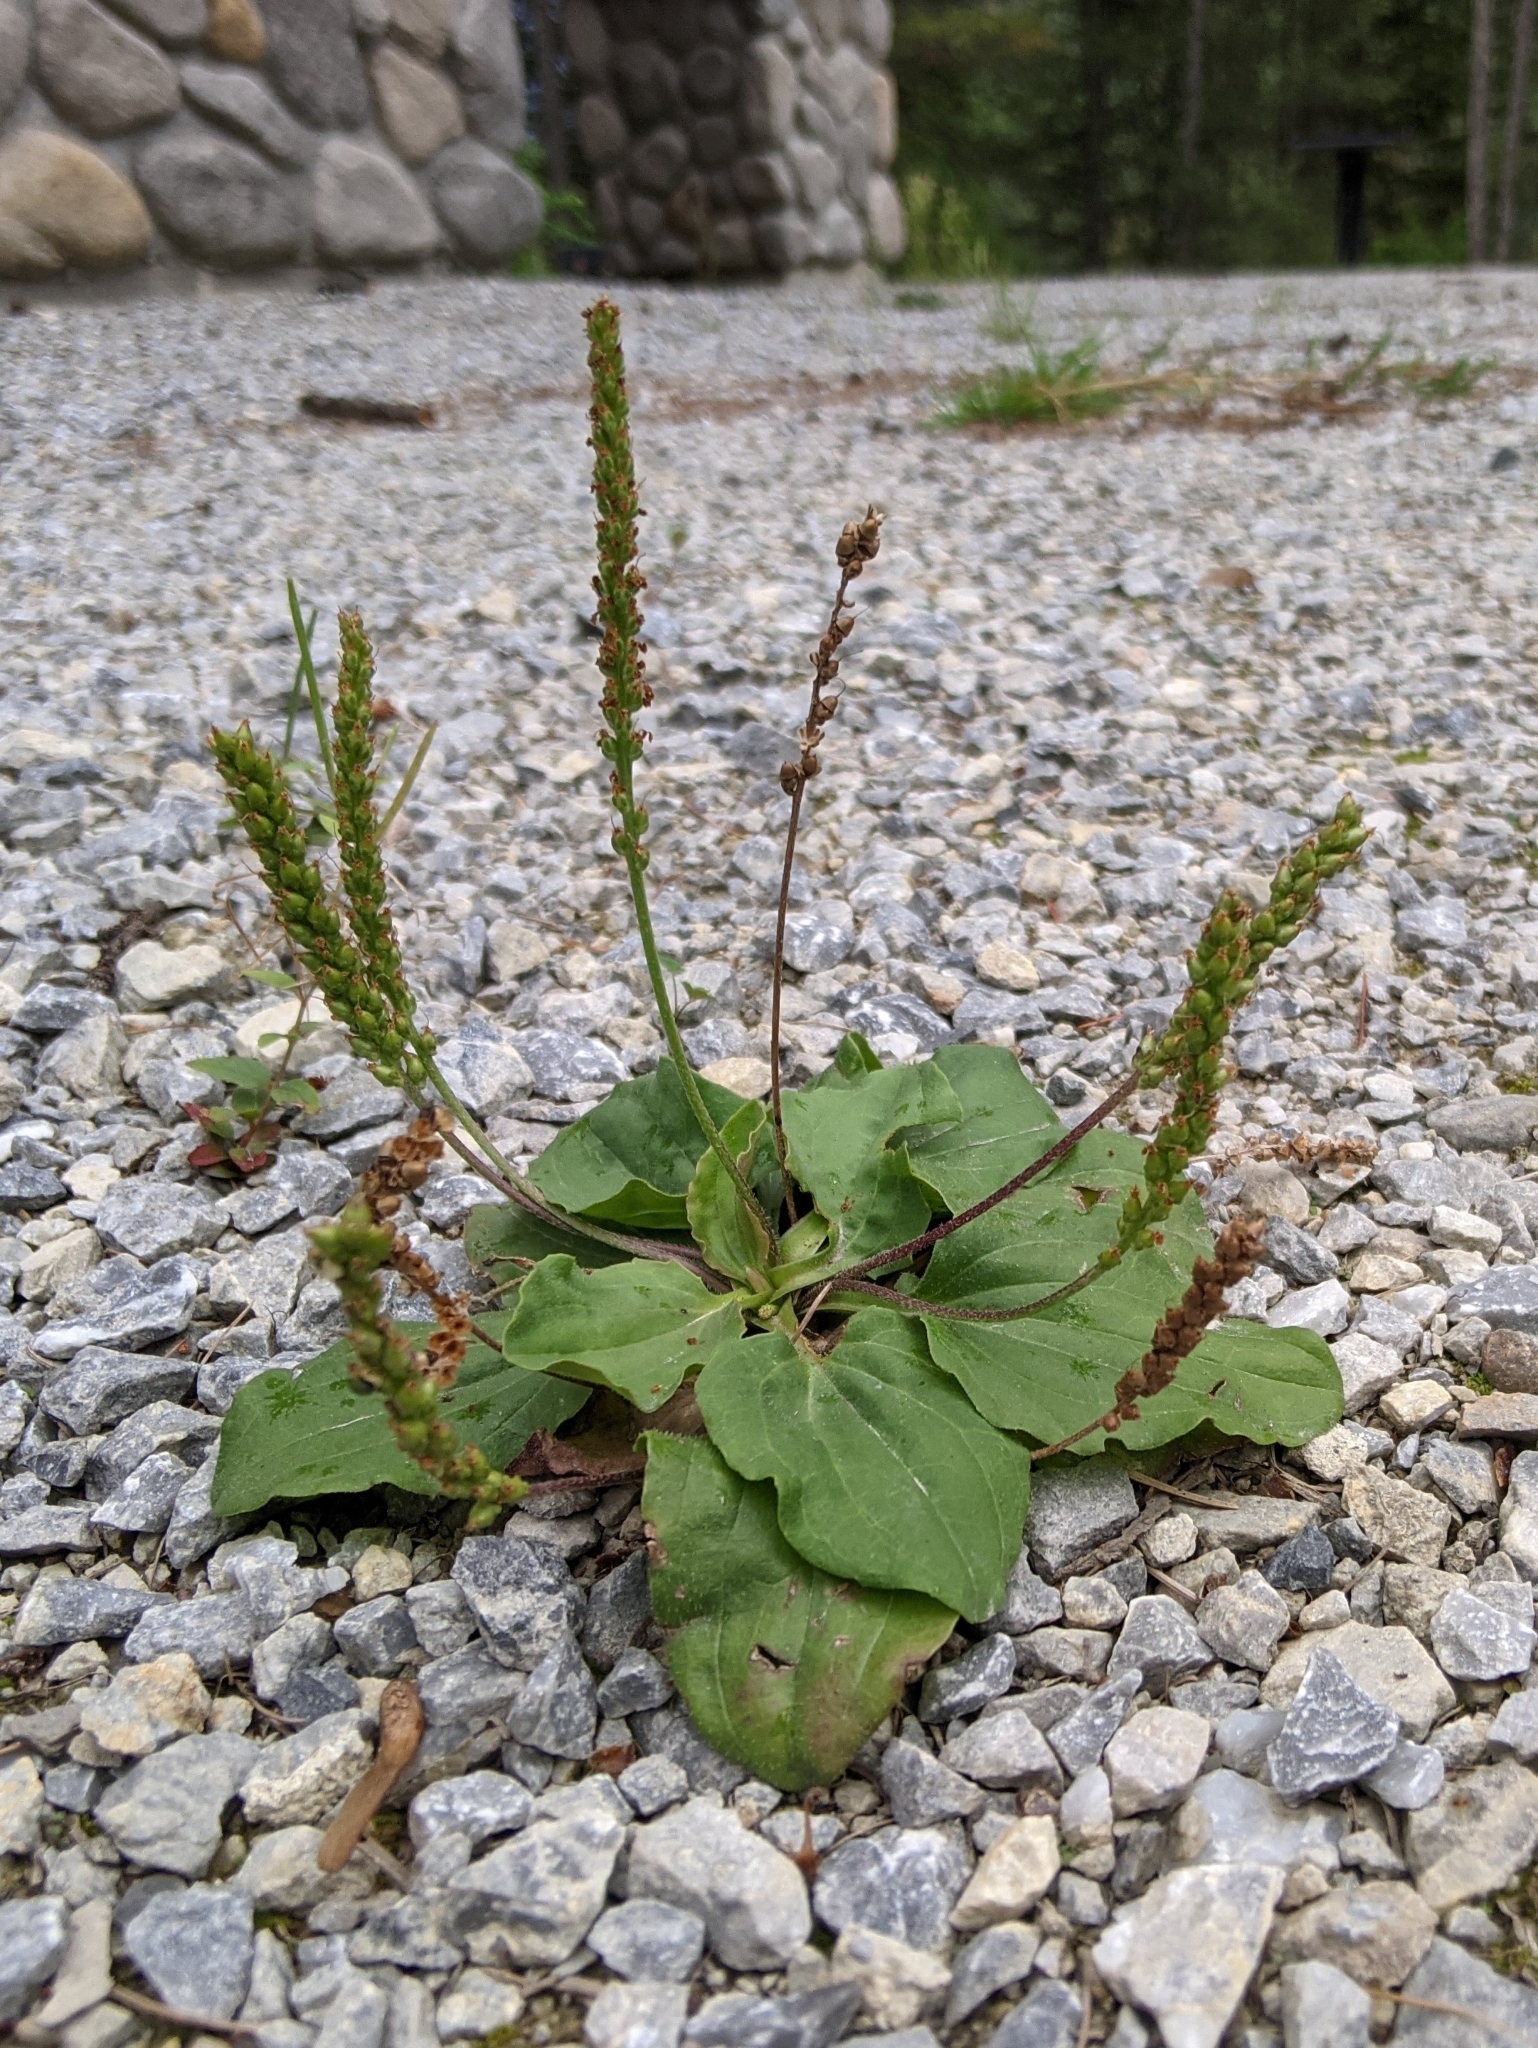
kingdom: Plantae
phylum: Tracheophyta
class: Magnoliopsida
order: Lamiales
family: Plantaginaceae
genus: Plantago
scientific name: Plantago major
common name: Common plantain
